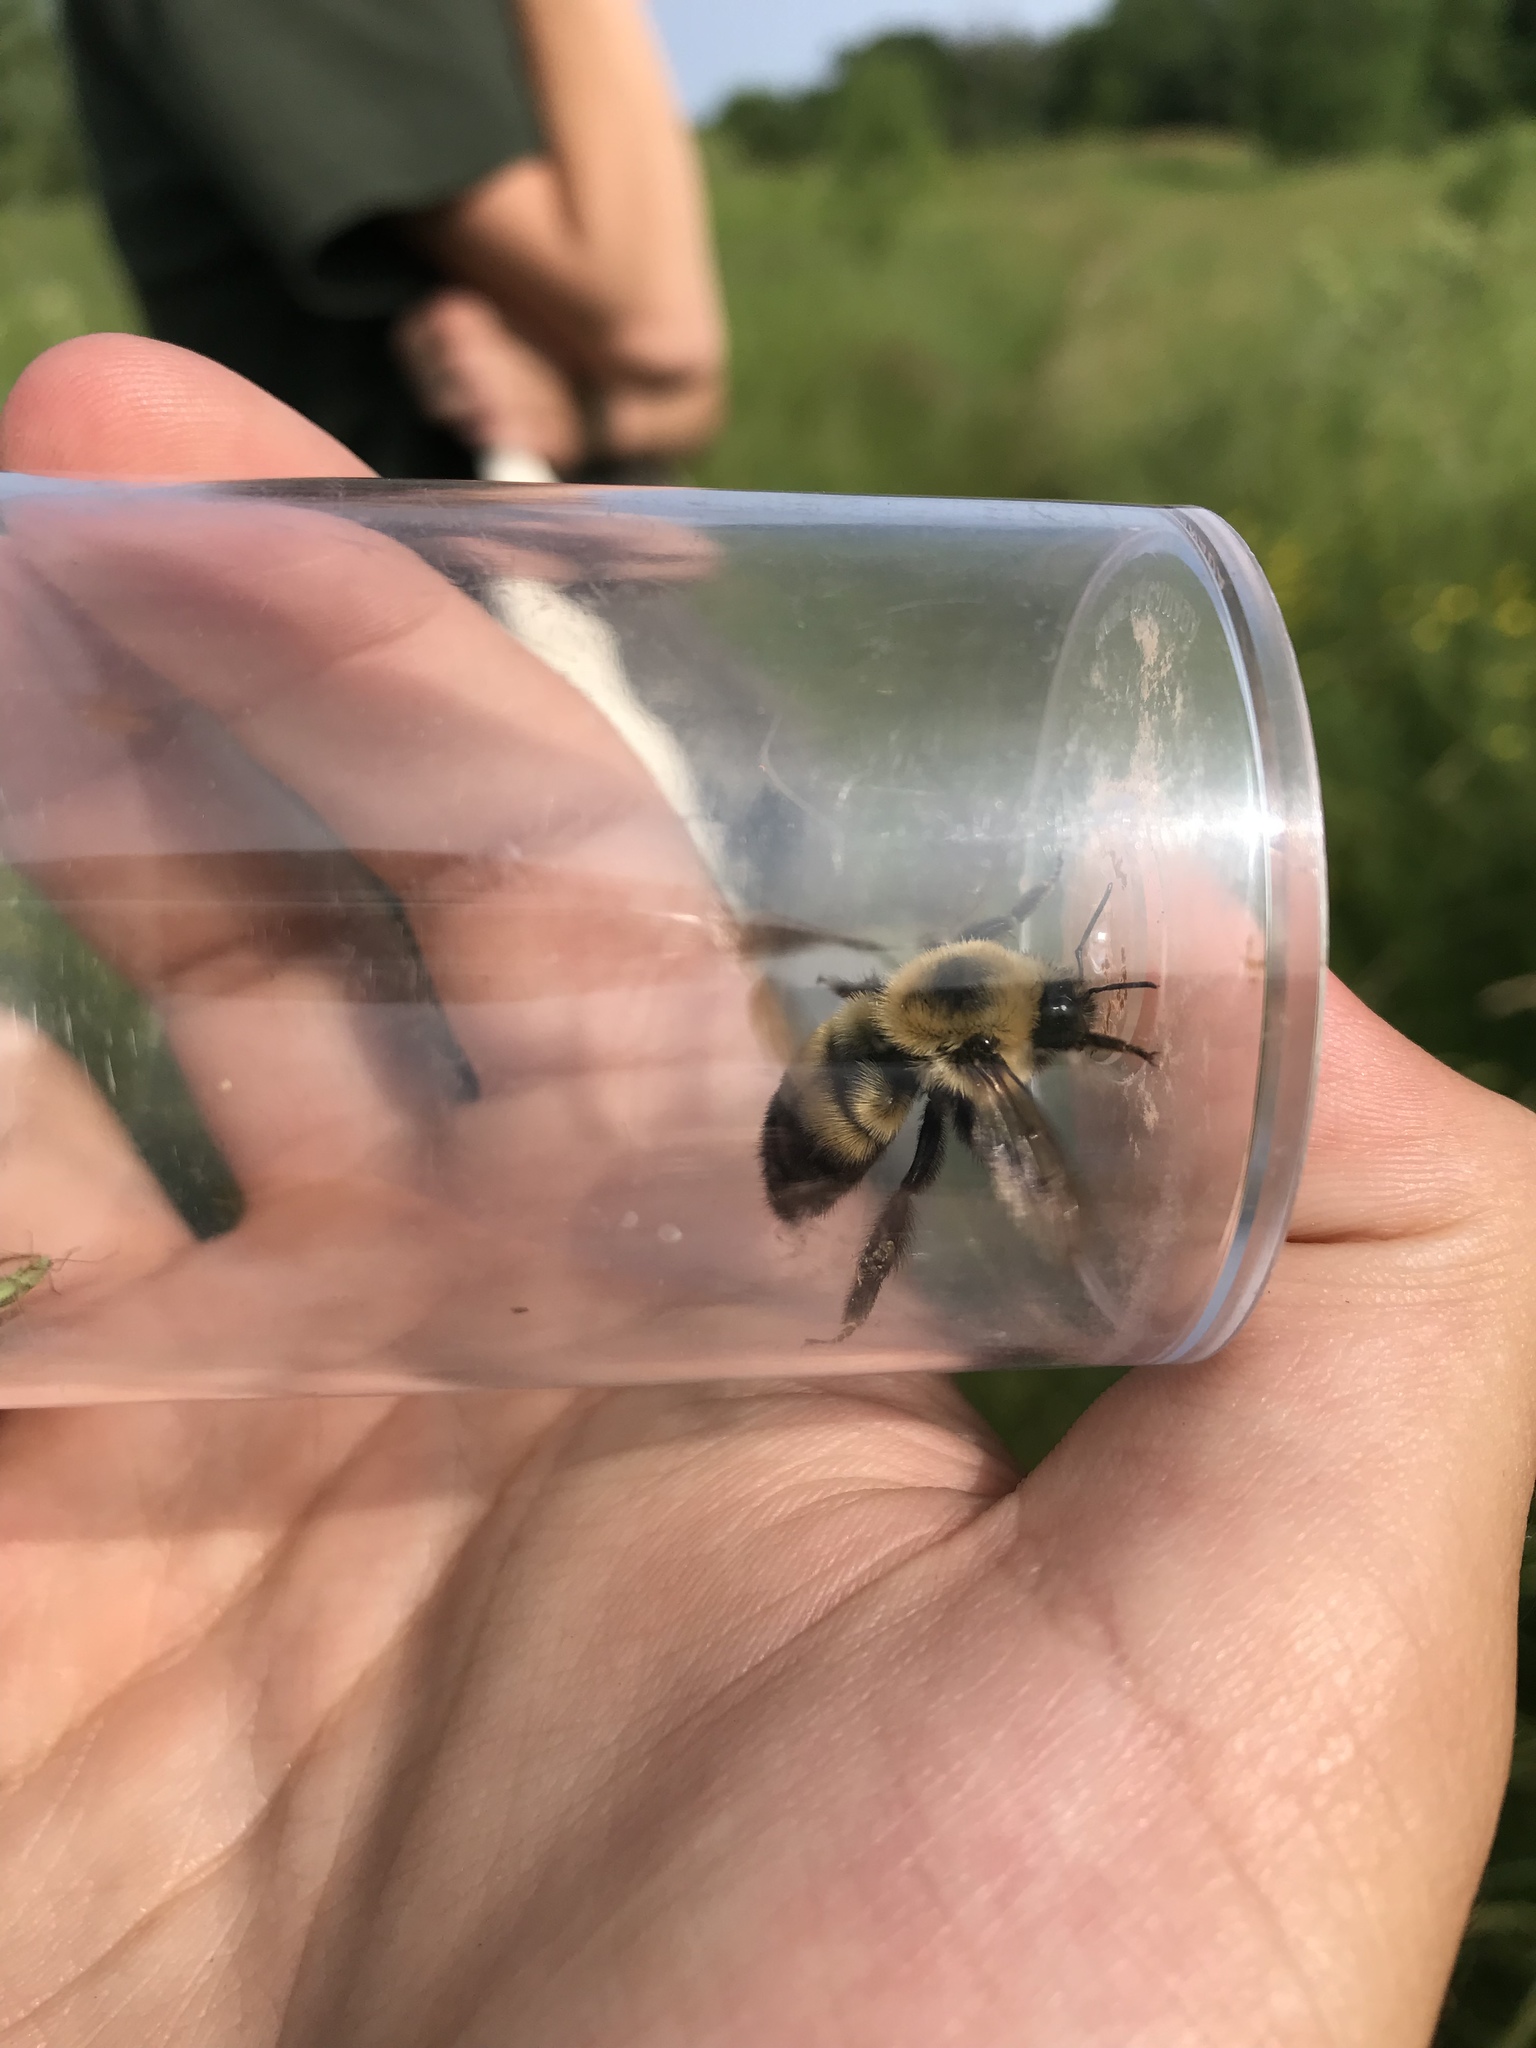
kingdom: Animalia
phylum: Arthropoda
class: Insecta
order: Hymenoptera
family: Apidae
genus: Bombus
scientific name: Bombus griseocollis
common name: Brown-belted bumble bee
